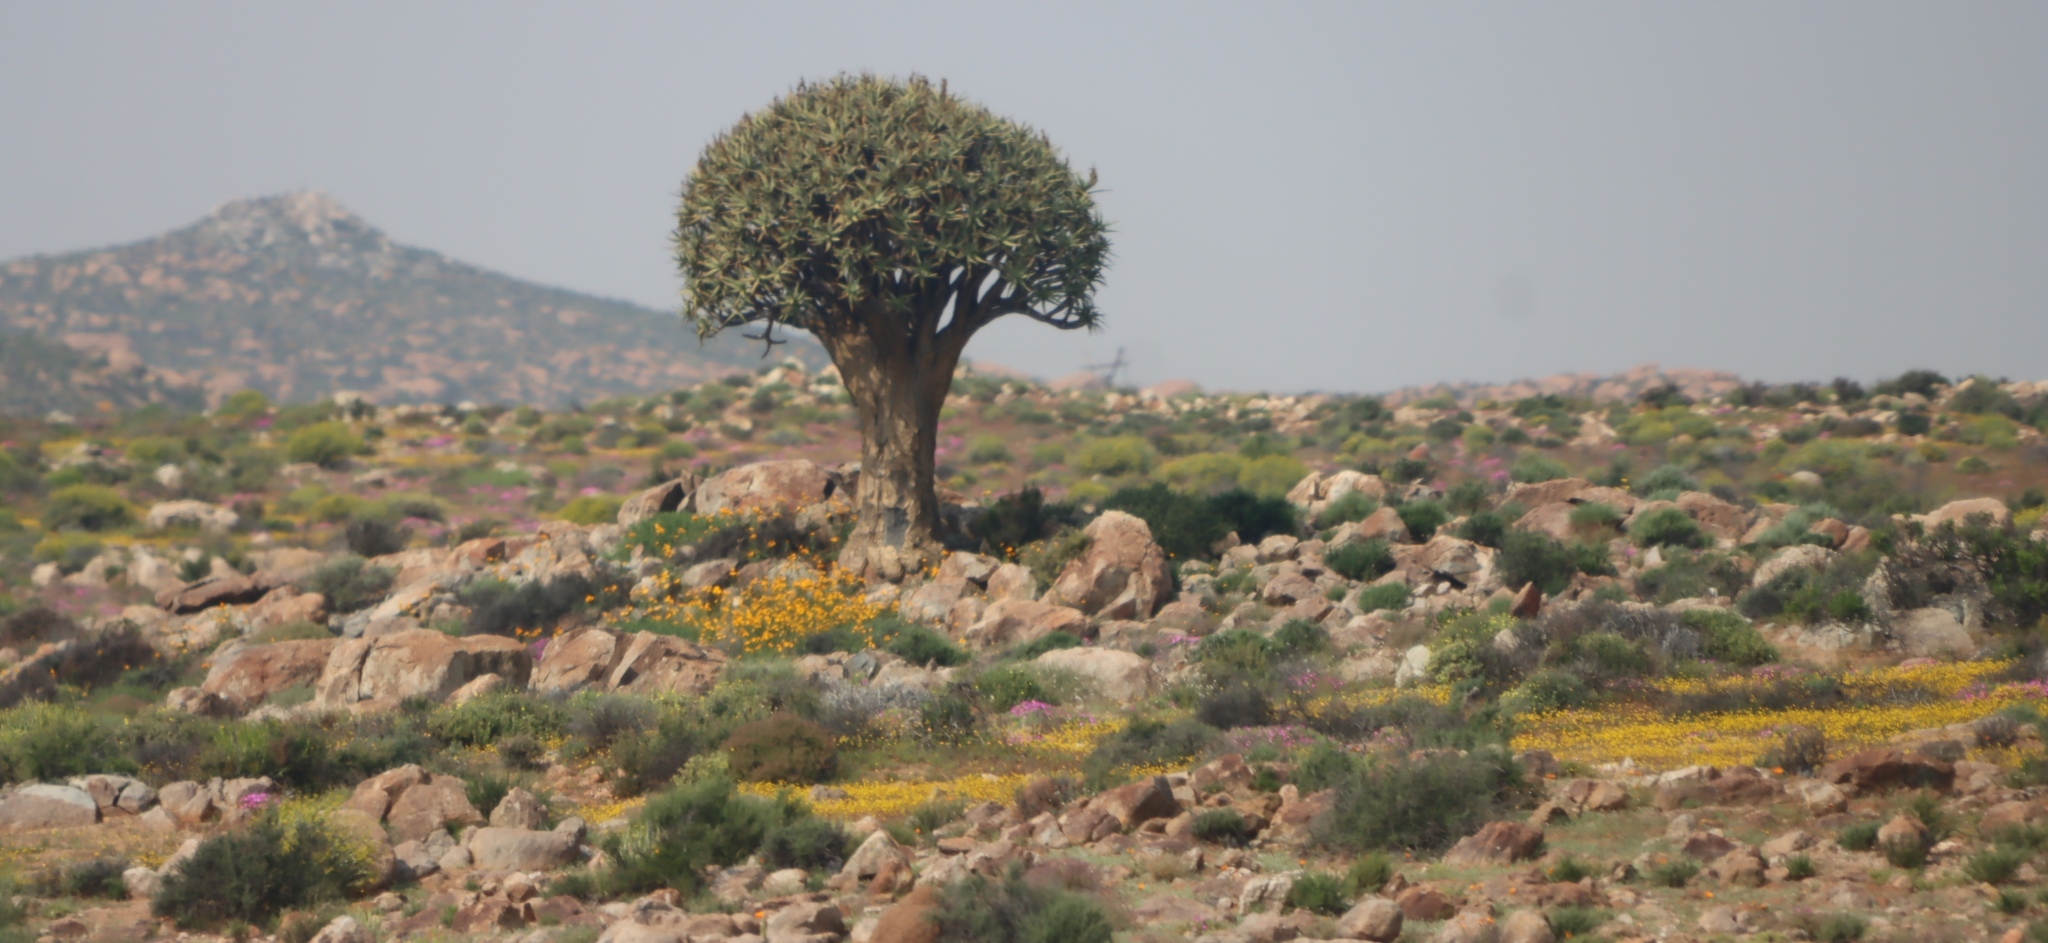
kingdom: Plantae
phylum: Tracheophyta
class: Liliopsida
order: Asparagales
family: Asphodelaceae
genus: Aloidendron
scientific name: Aloidendron dichotomum
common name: Quiver tree
